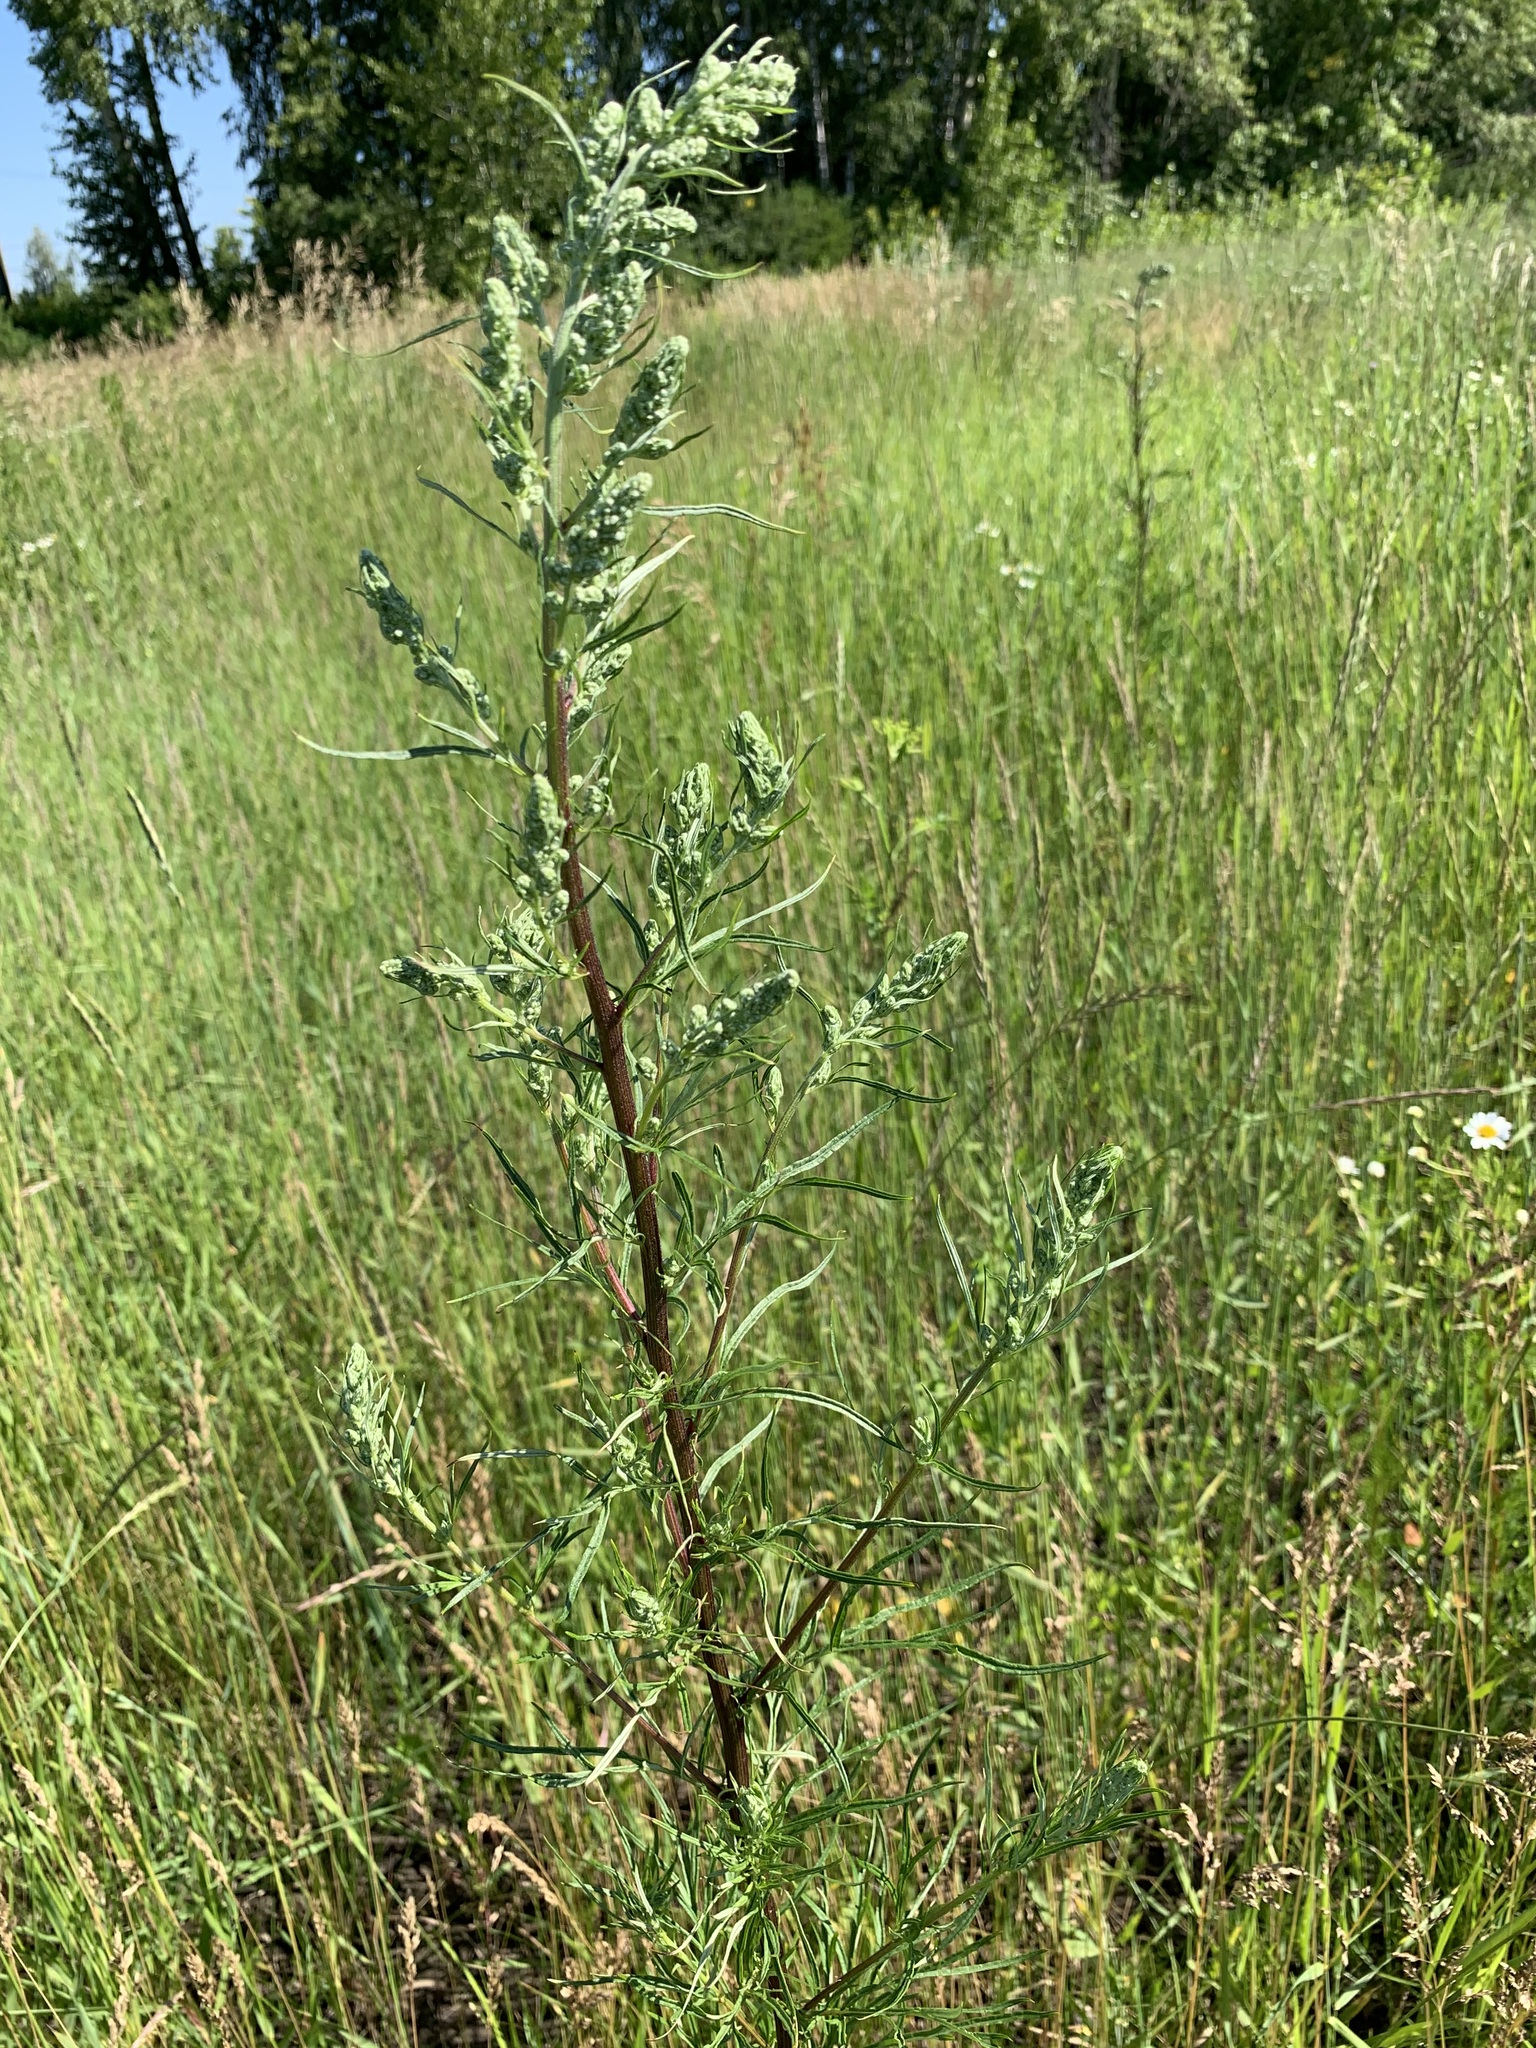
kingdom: Plantae
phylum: Tracheophyta
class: Magnoliopsida
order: Asterales
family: Asteraceae
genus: Artemisia
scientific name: Artemisia vulgaris
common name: Mugwort
